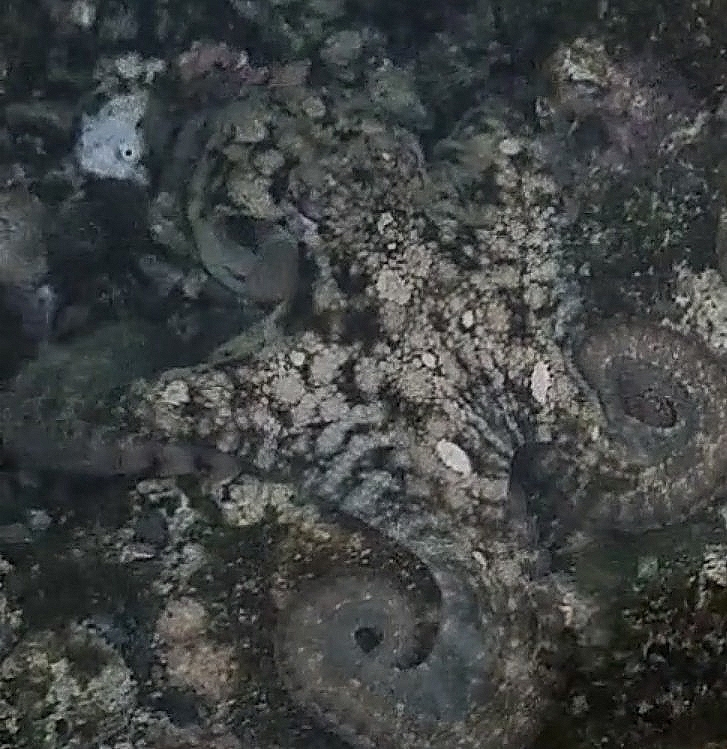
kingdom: Animalia
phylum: Mollusca
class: Cephalopoda
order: Octopoda
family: Octopodidae
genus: Octopus
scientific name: Octopus vulgaris
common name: Common octopus
